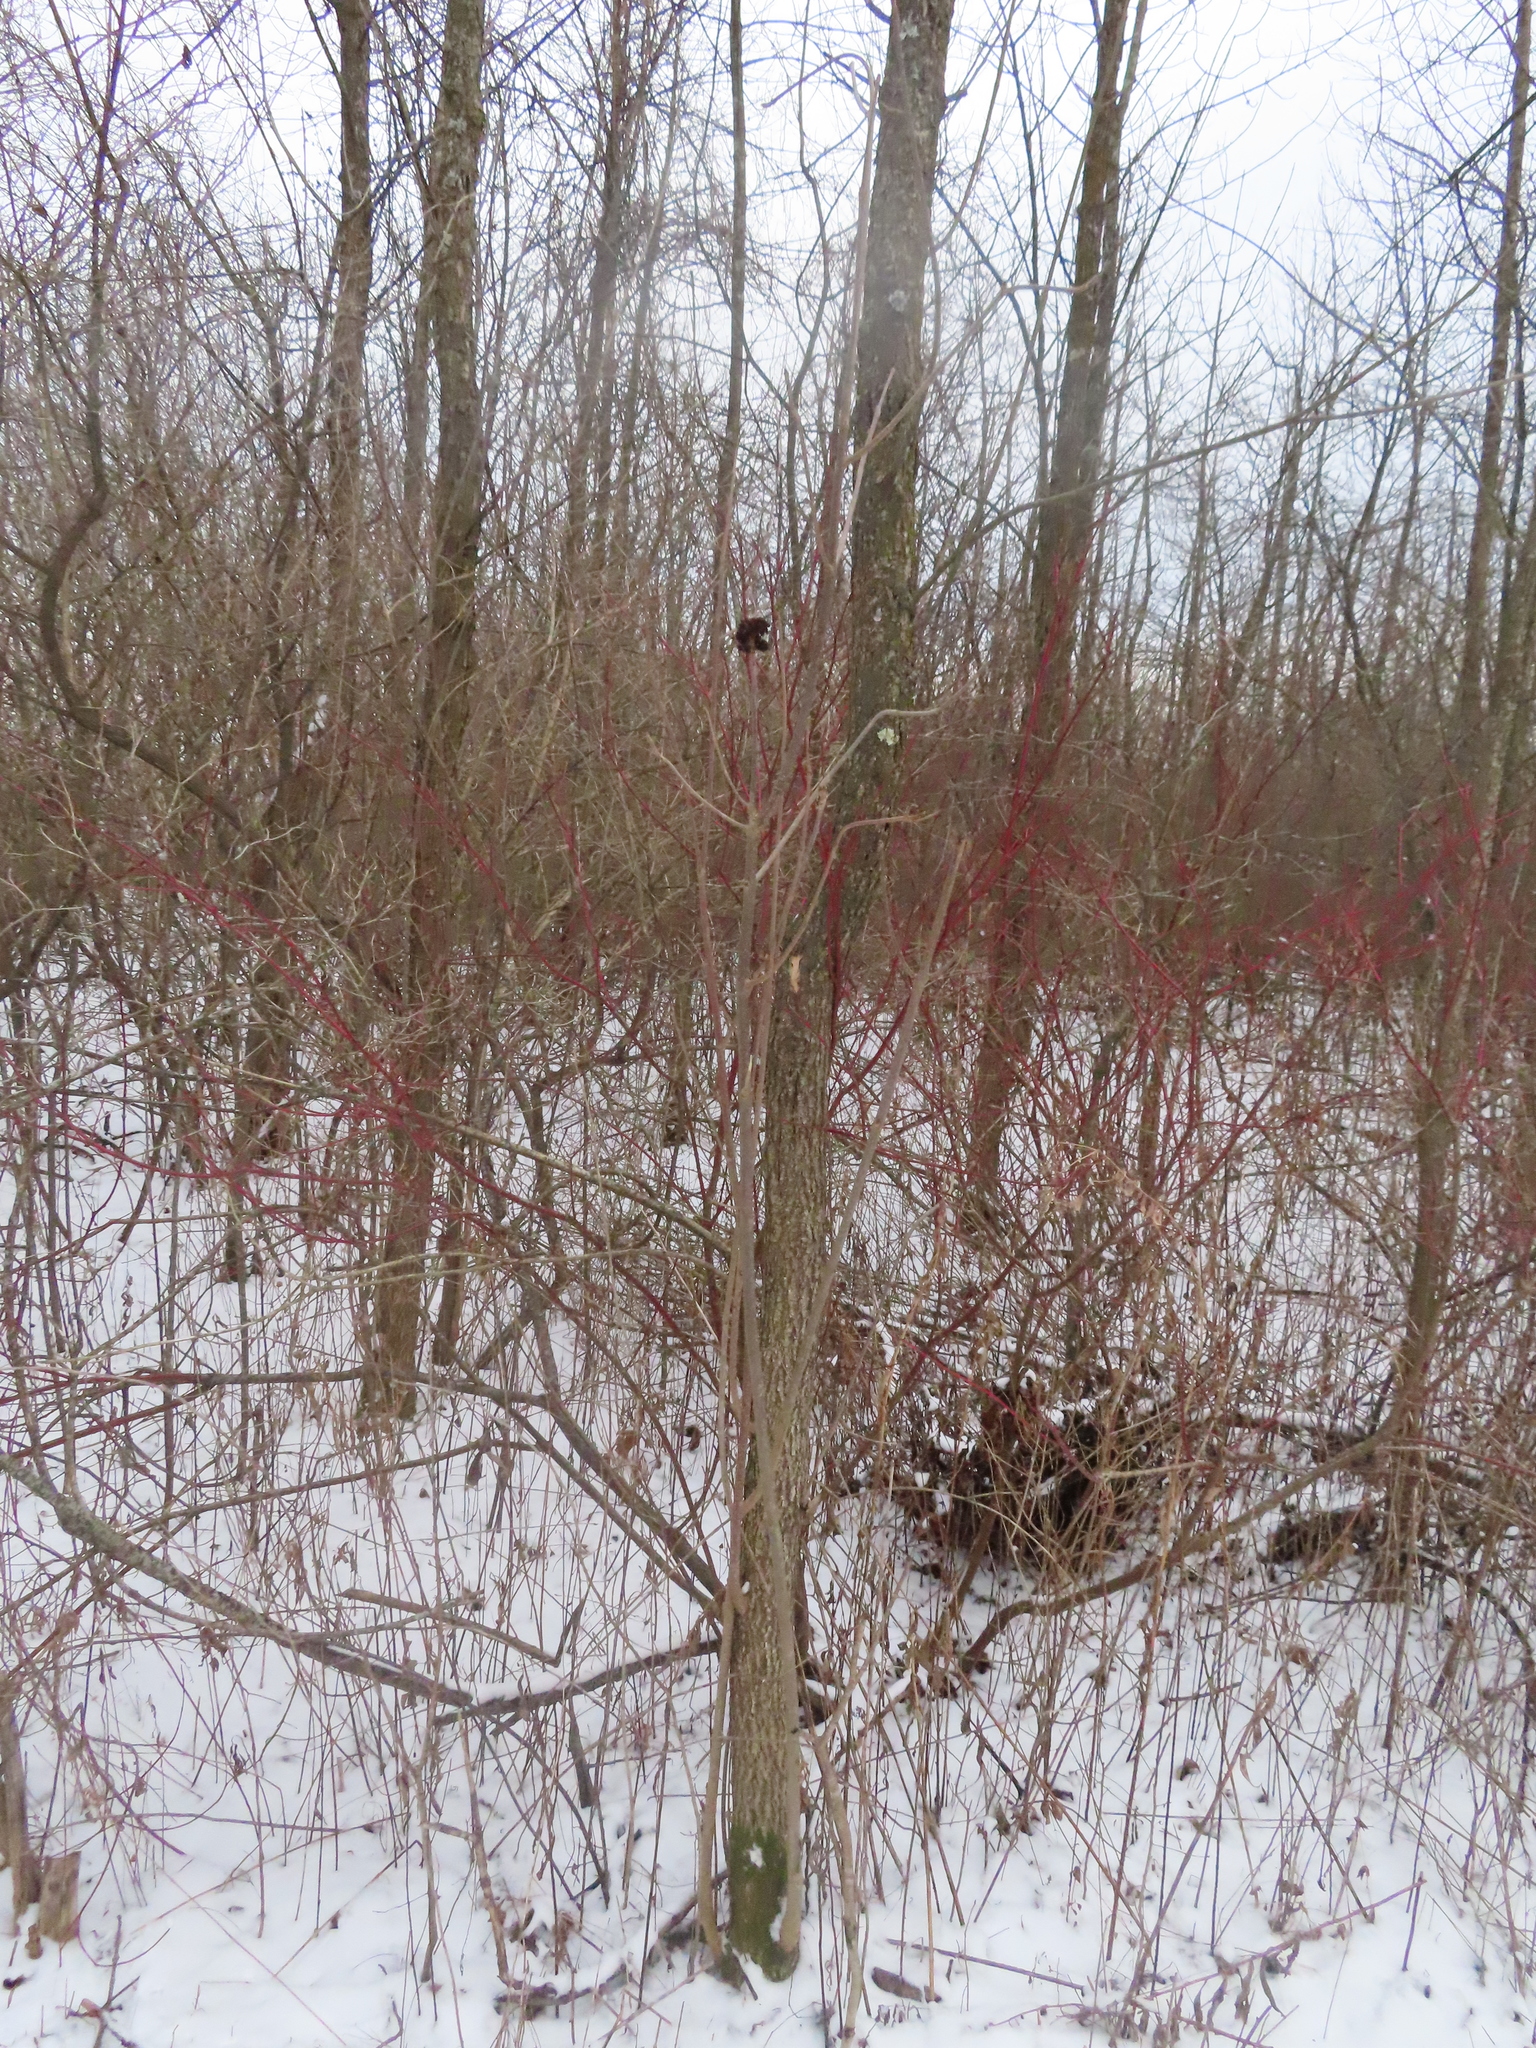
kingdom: Animalia
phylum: Arthropoda
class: Arachnida
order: Trombidiformes
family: Eriophyidae
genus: Aceria
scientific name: Aceria fraxiniflora
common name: Ash flower gall mite
